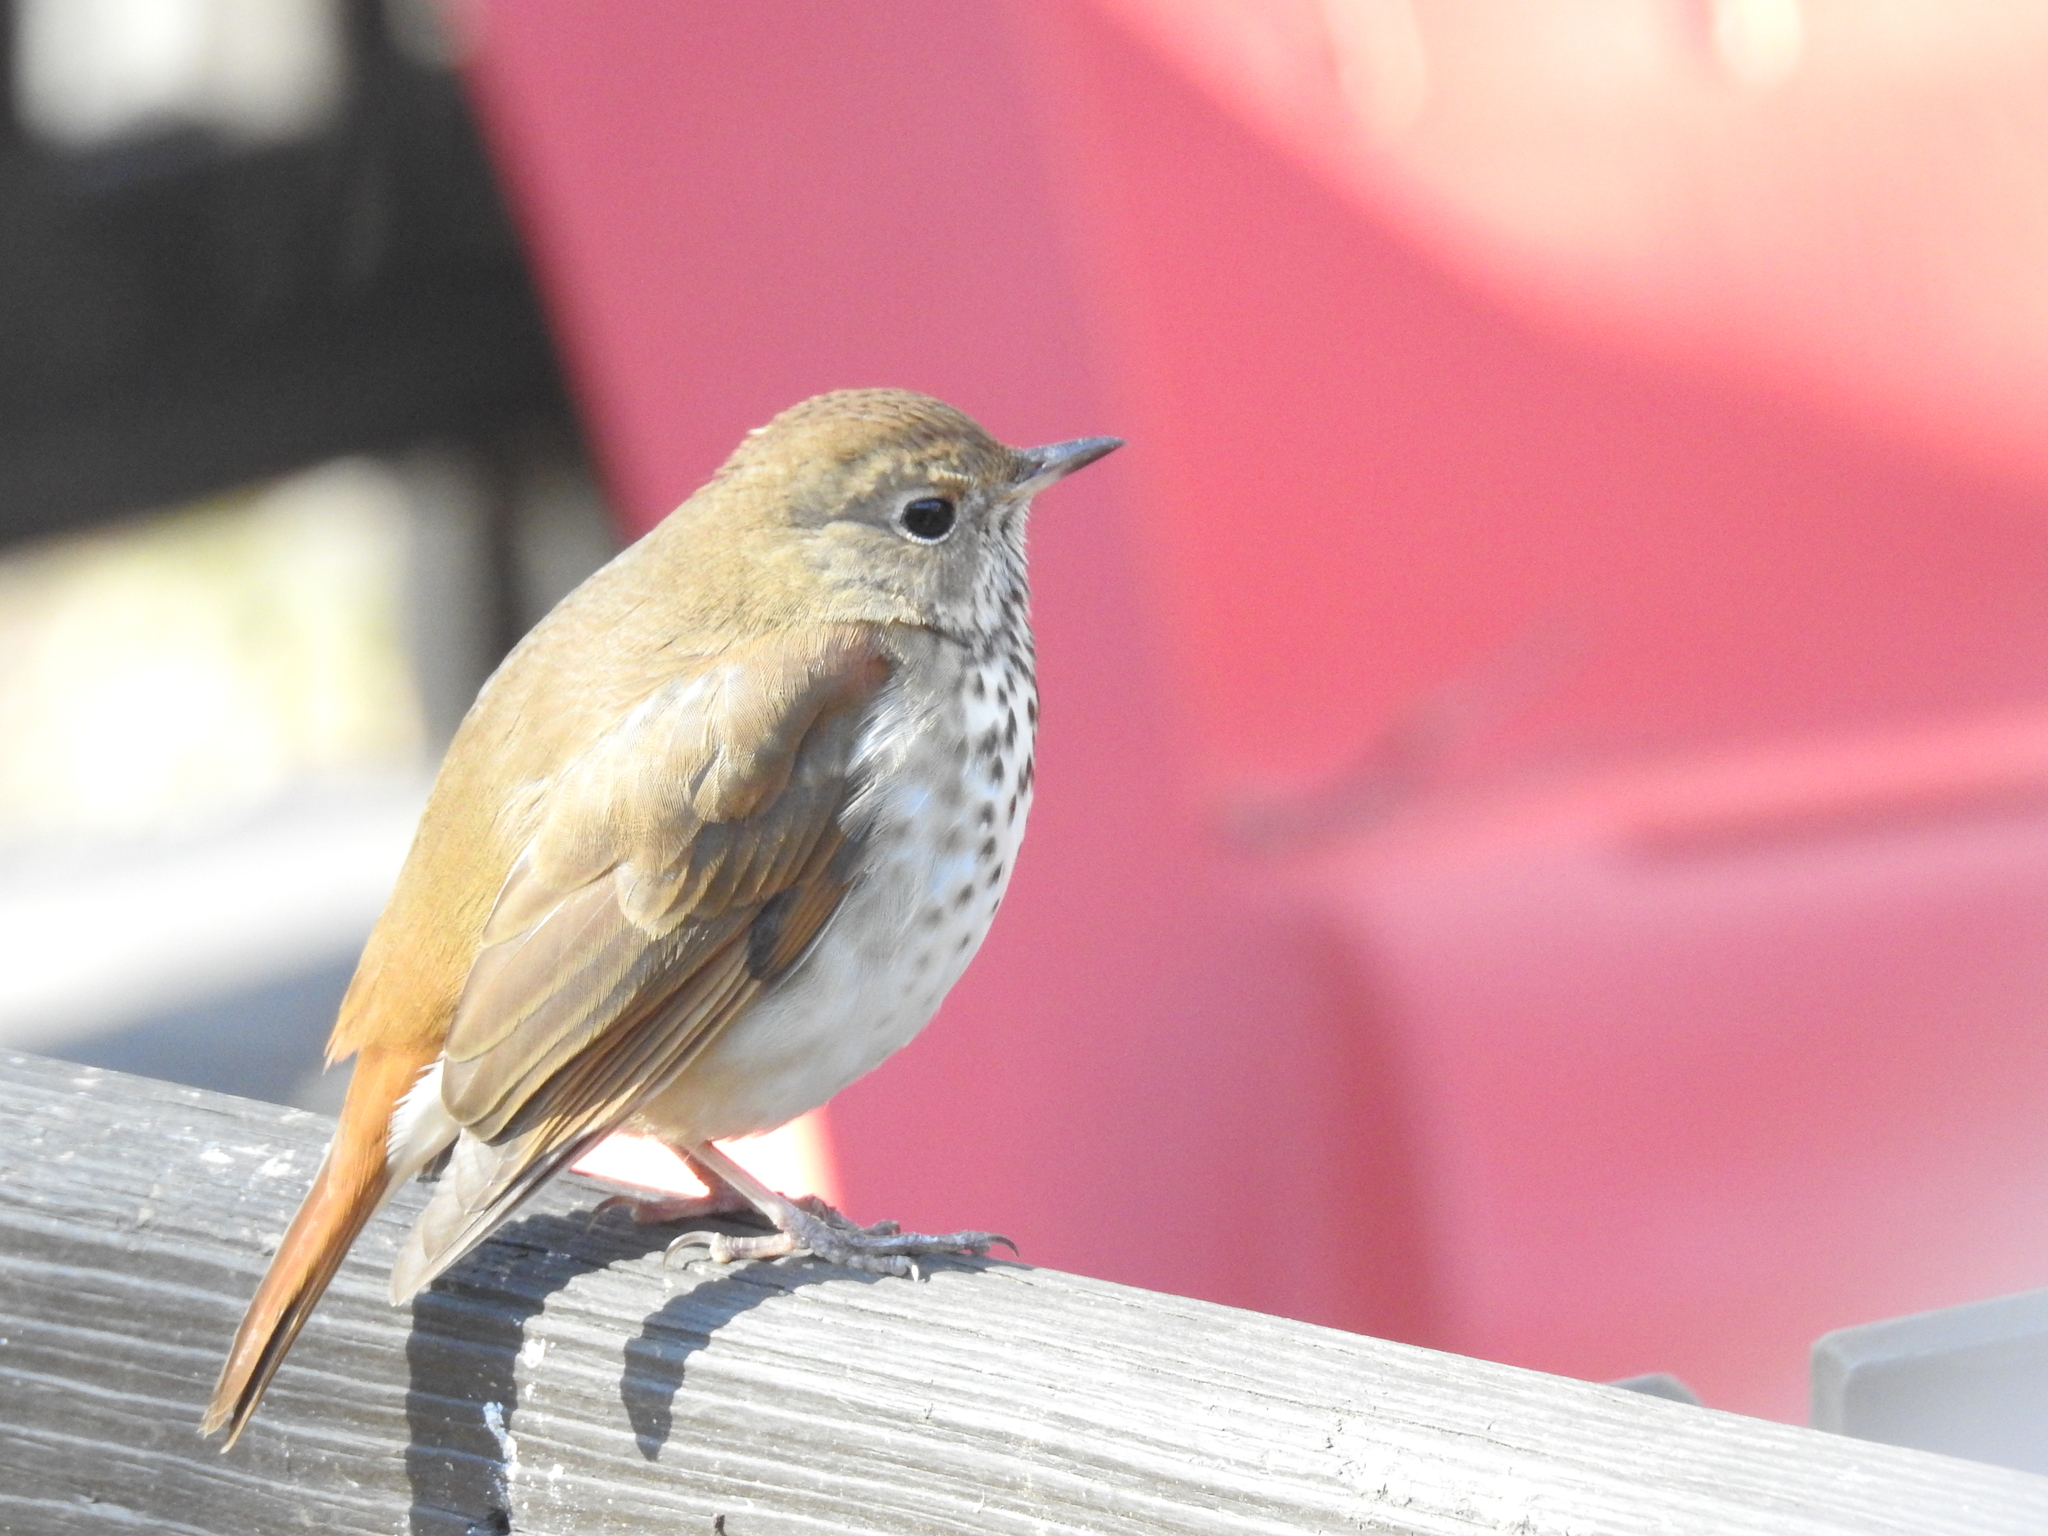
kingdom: Animalia
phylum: Chordata
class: Aves
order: Passeriformes
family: Turdidae
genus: Catharus
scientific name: Catharus guttatus
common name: Hermit thrush
